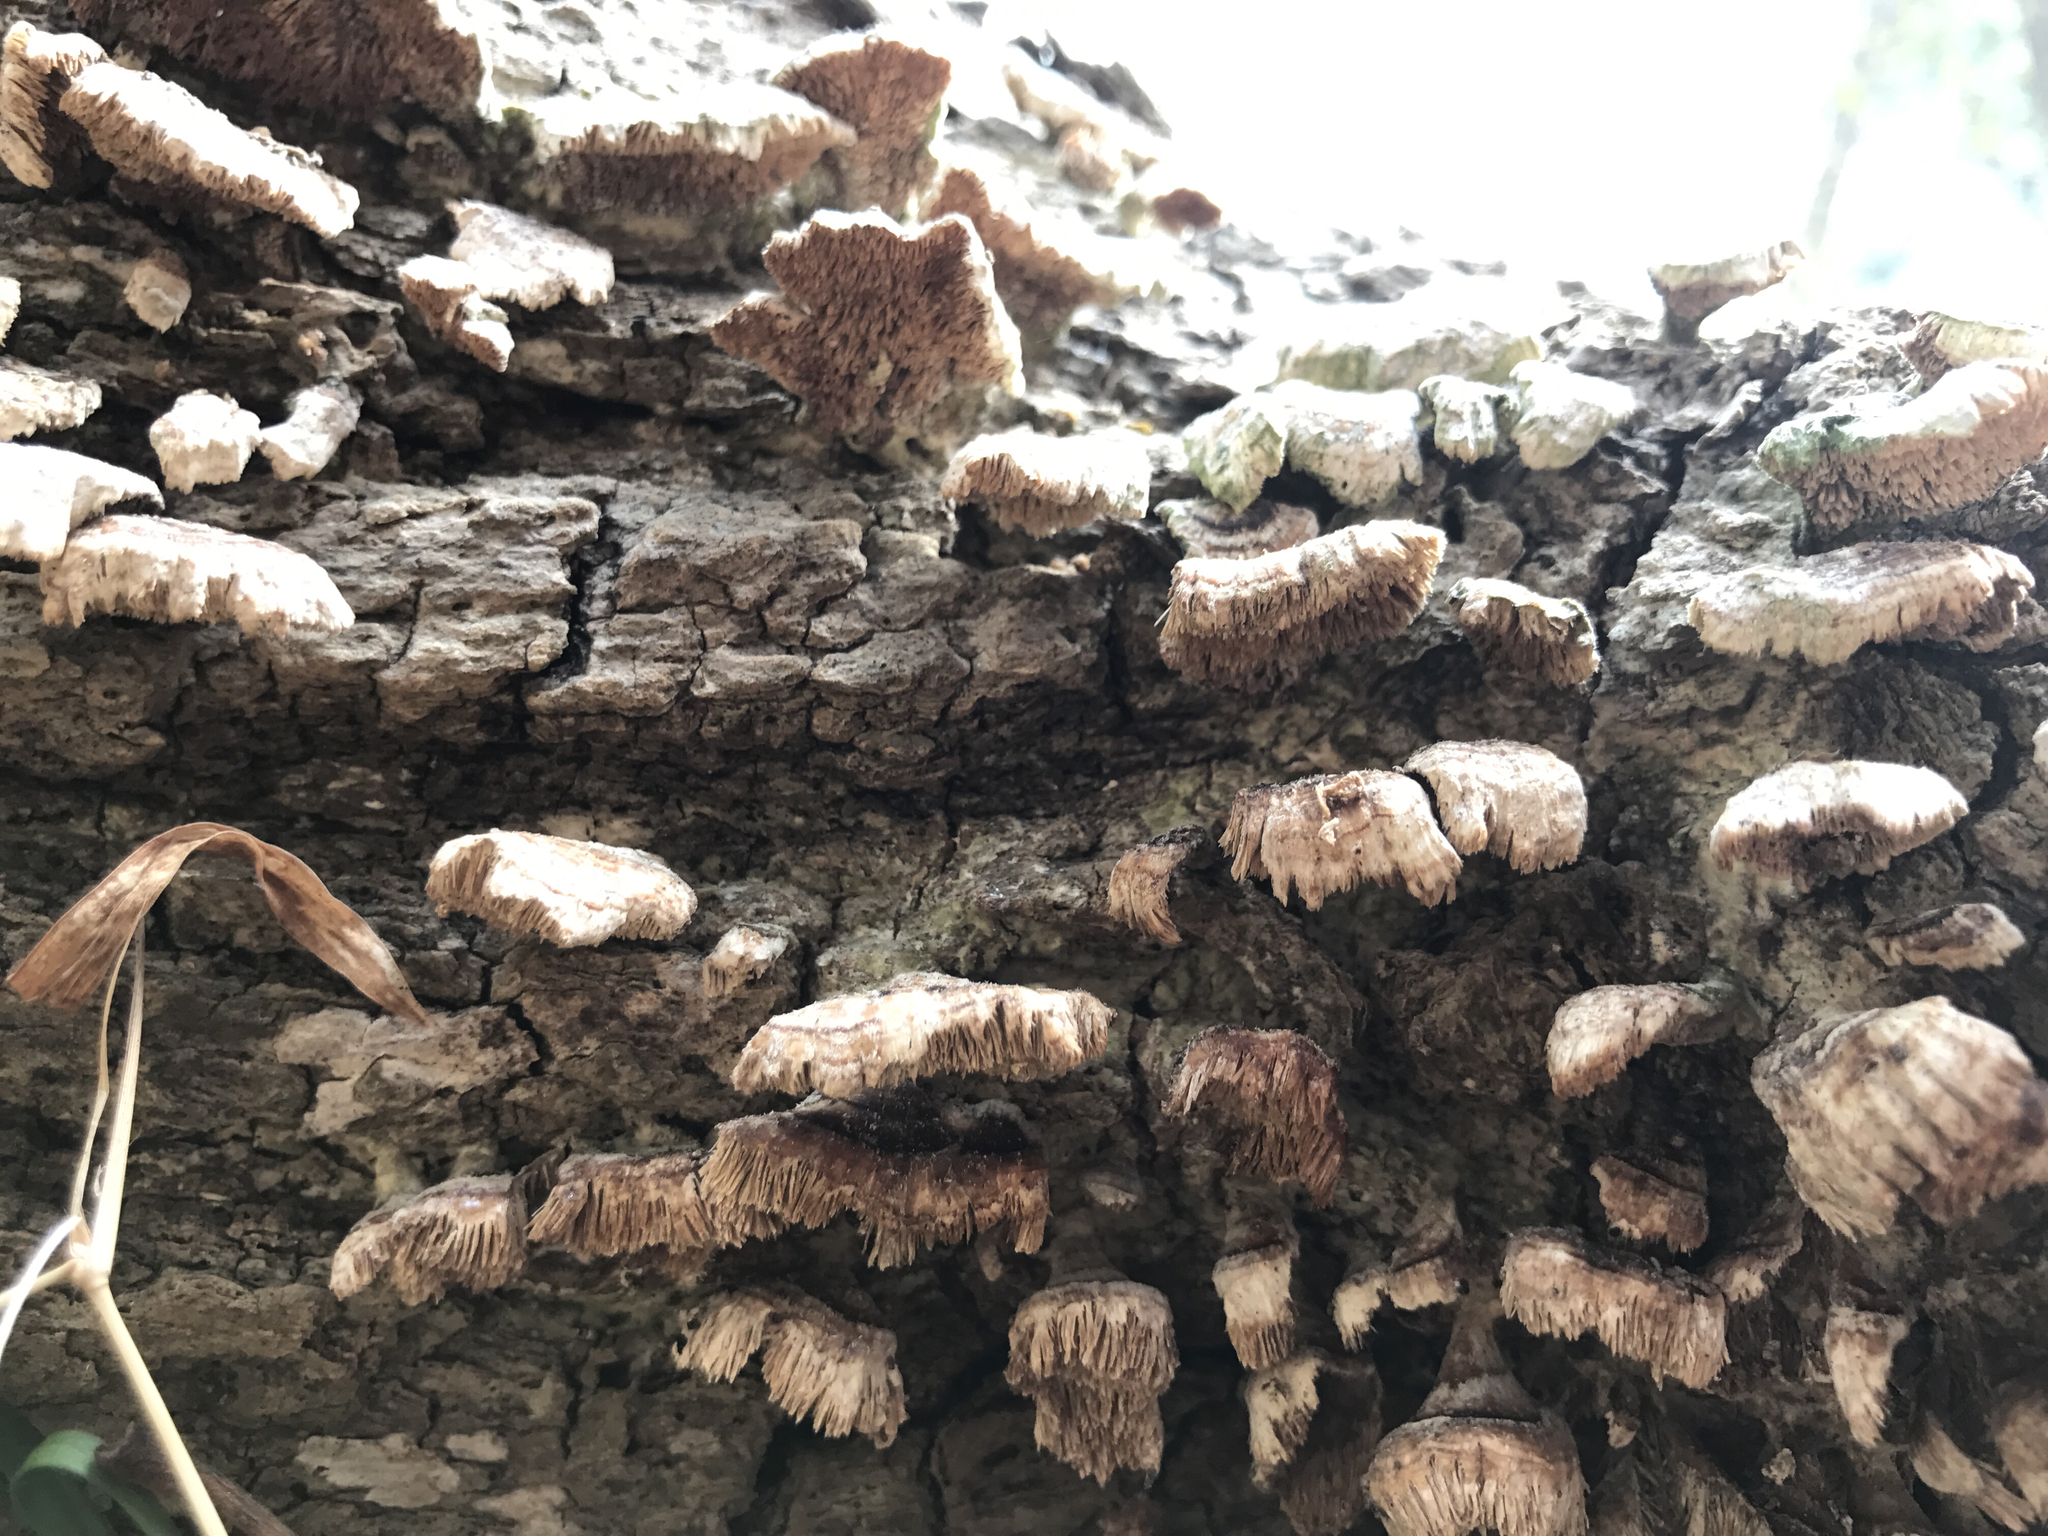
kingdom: Fungi
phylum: Basidiomycota
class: Agaricomycetes
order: Hymenochaetales
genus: Trichaptum
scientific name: Trichaptum biforme
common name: Violet-toothed polypore
